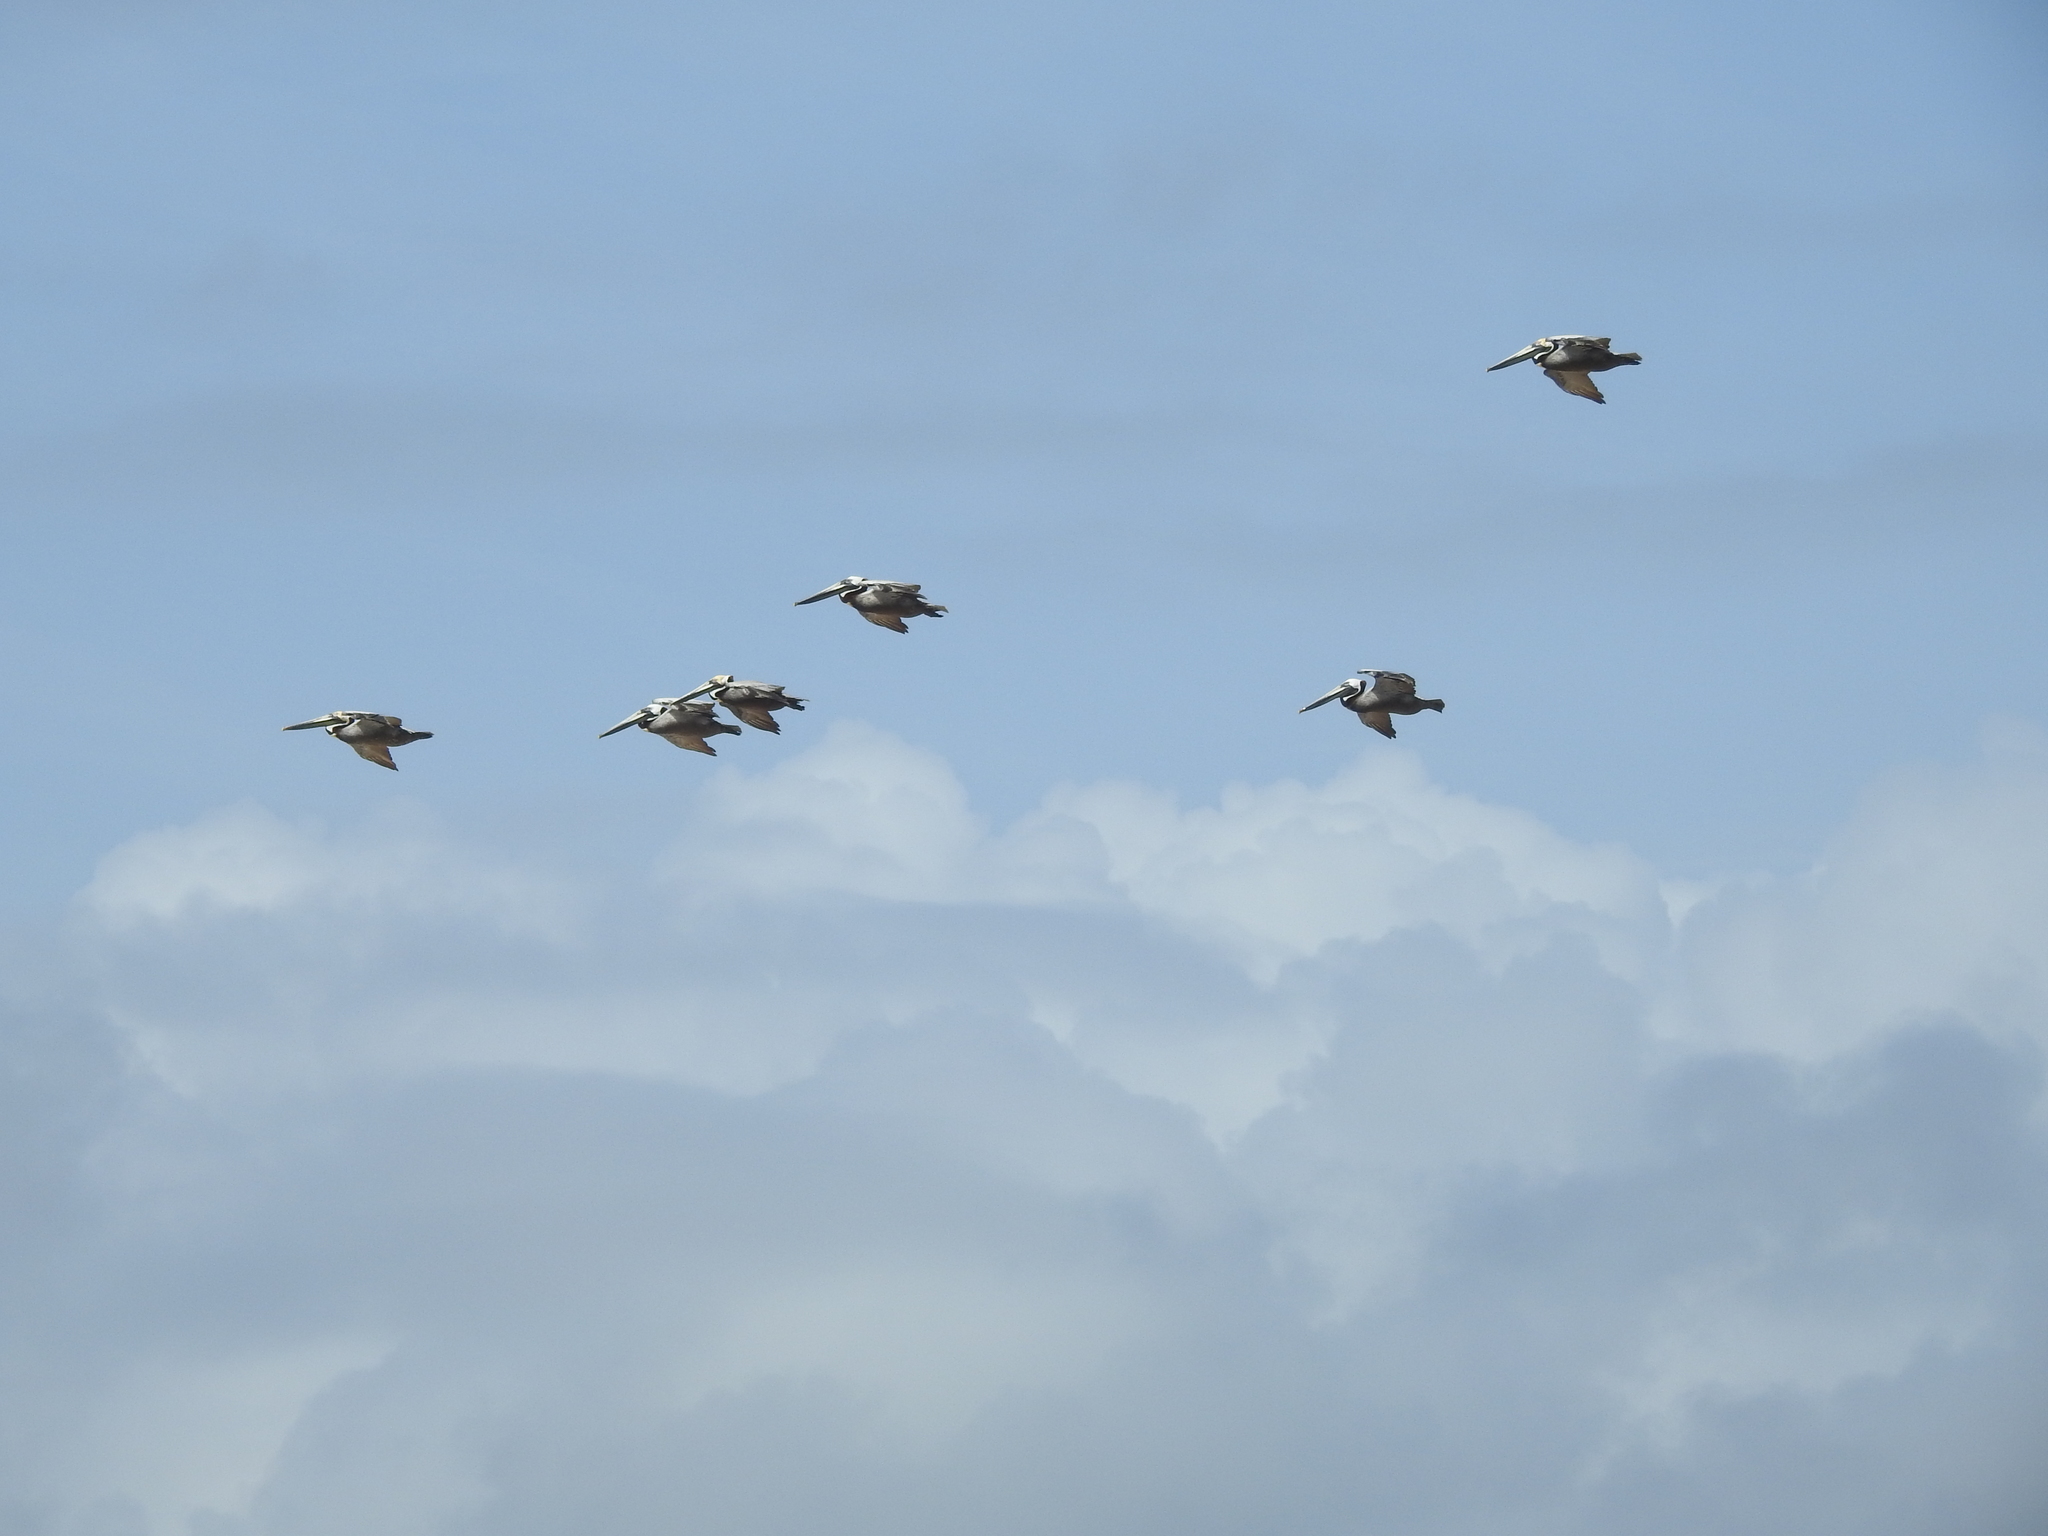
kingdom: Animalia
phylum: Chordata
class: Aves
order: Pelecaniformes
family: Pelecanidae
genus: Pelecanus
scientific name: Pelecanus occidentalis
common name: Brown pelican
